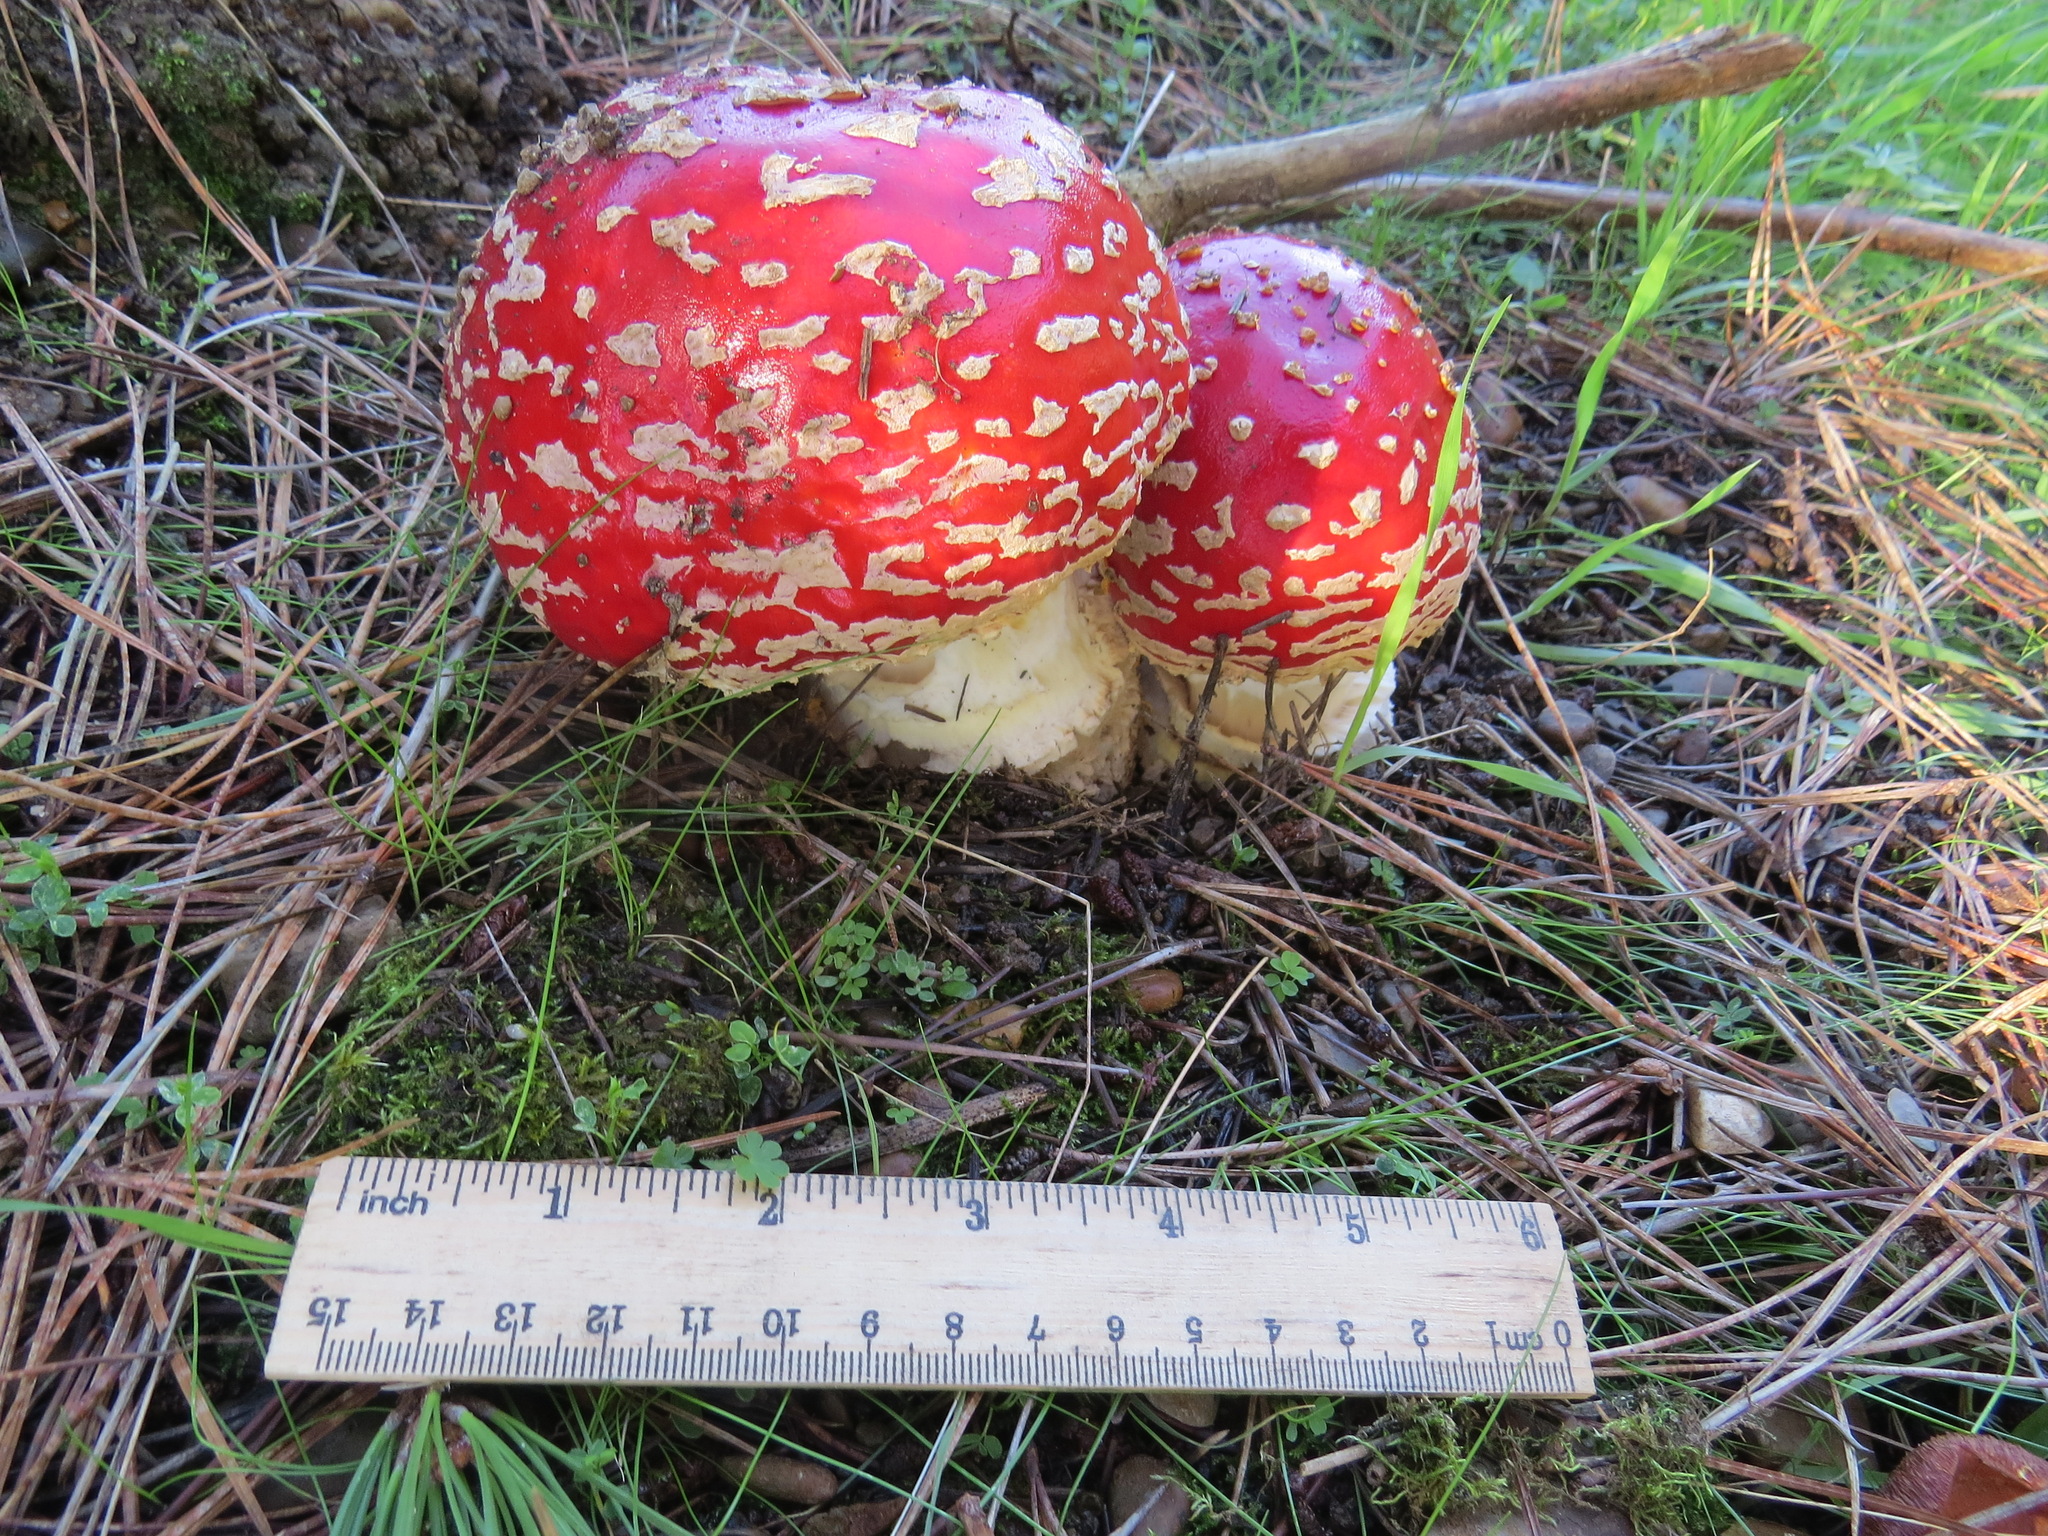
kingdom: Fungi
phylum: Basidiomycota
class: Agaricomycetes
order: Agaricales
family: Amanitaceae
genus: Amanita
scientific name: Amanita muscaria
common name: Fly agaric
